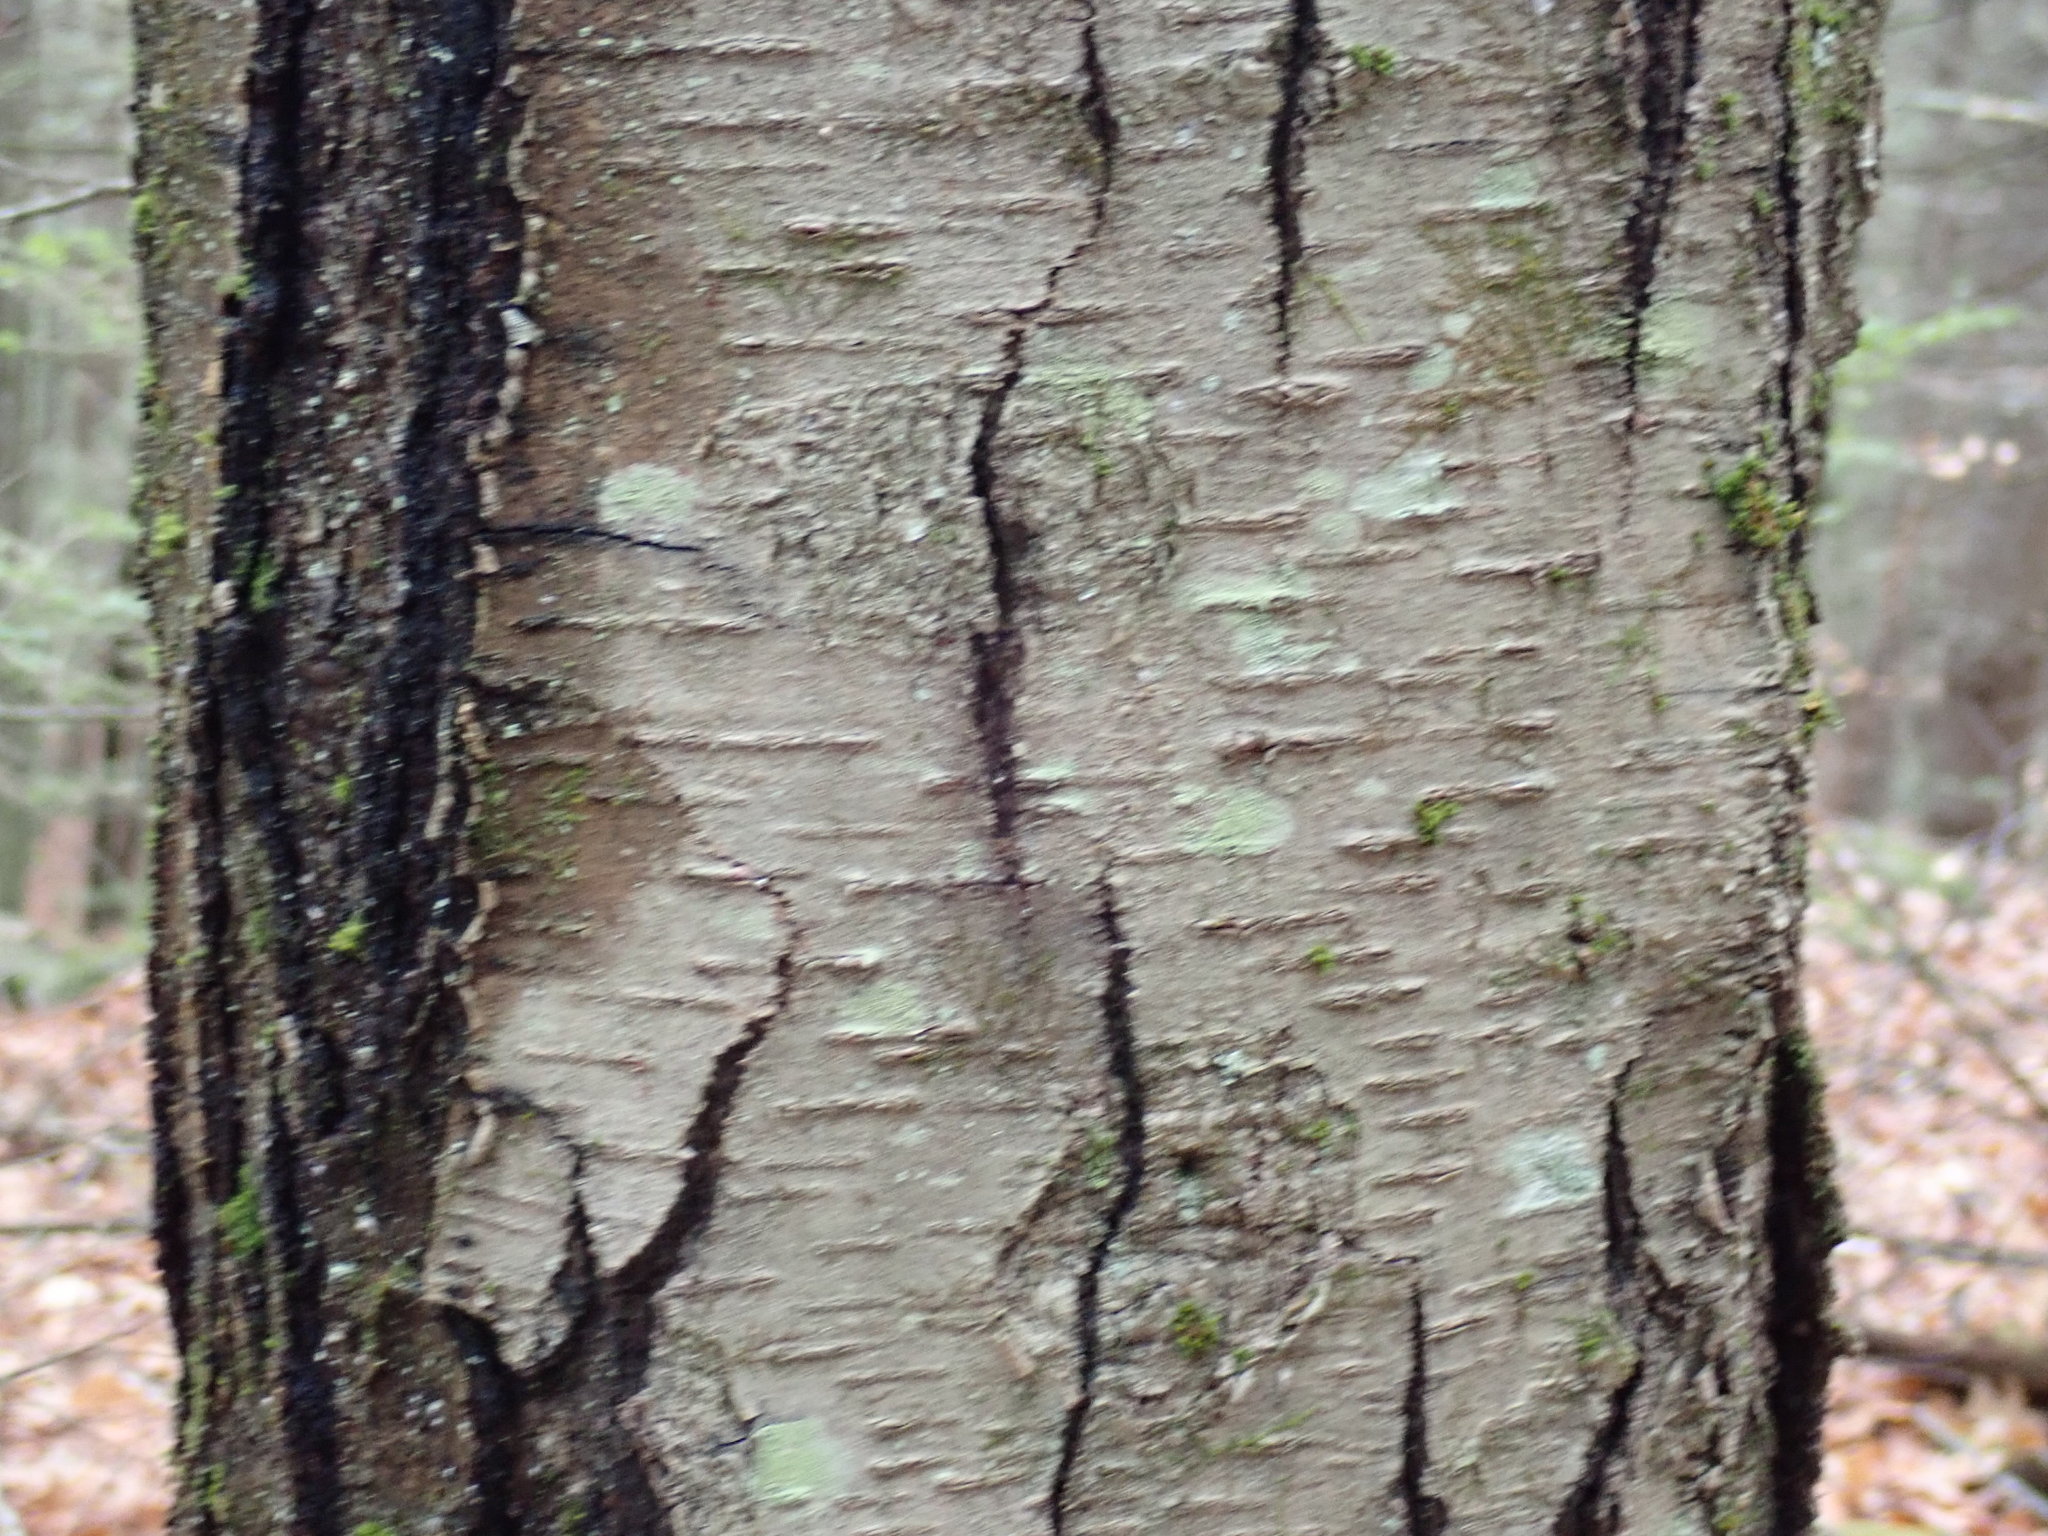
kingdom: Plantae
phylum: Tracheophyta
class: Magnoliopsida
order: Fagales
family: Betulaceae
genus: Betula
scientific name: Betula lenta
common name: Black birch
